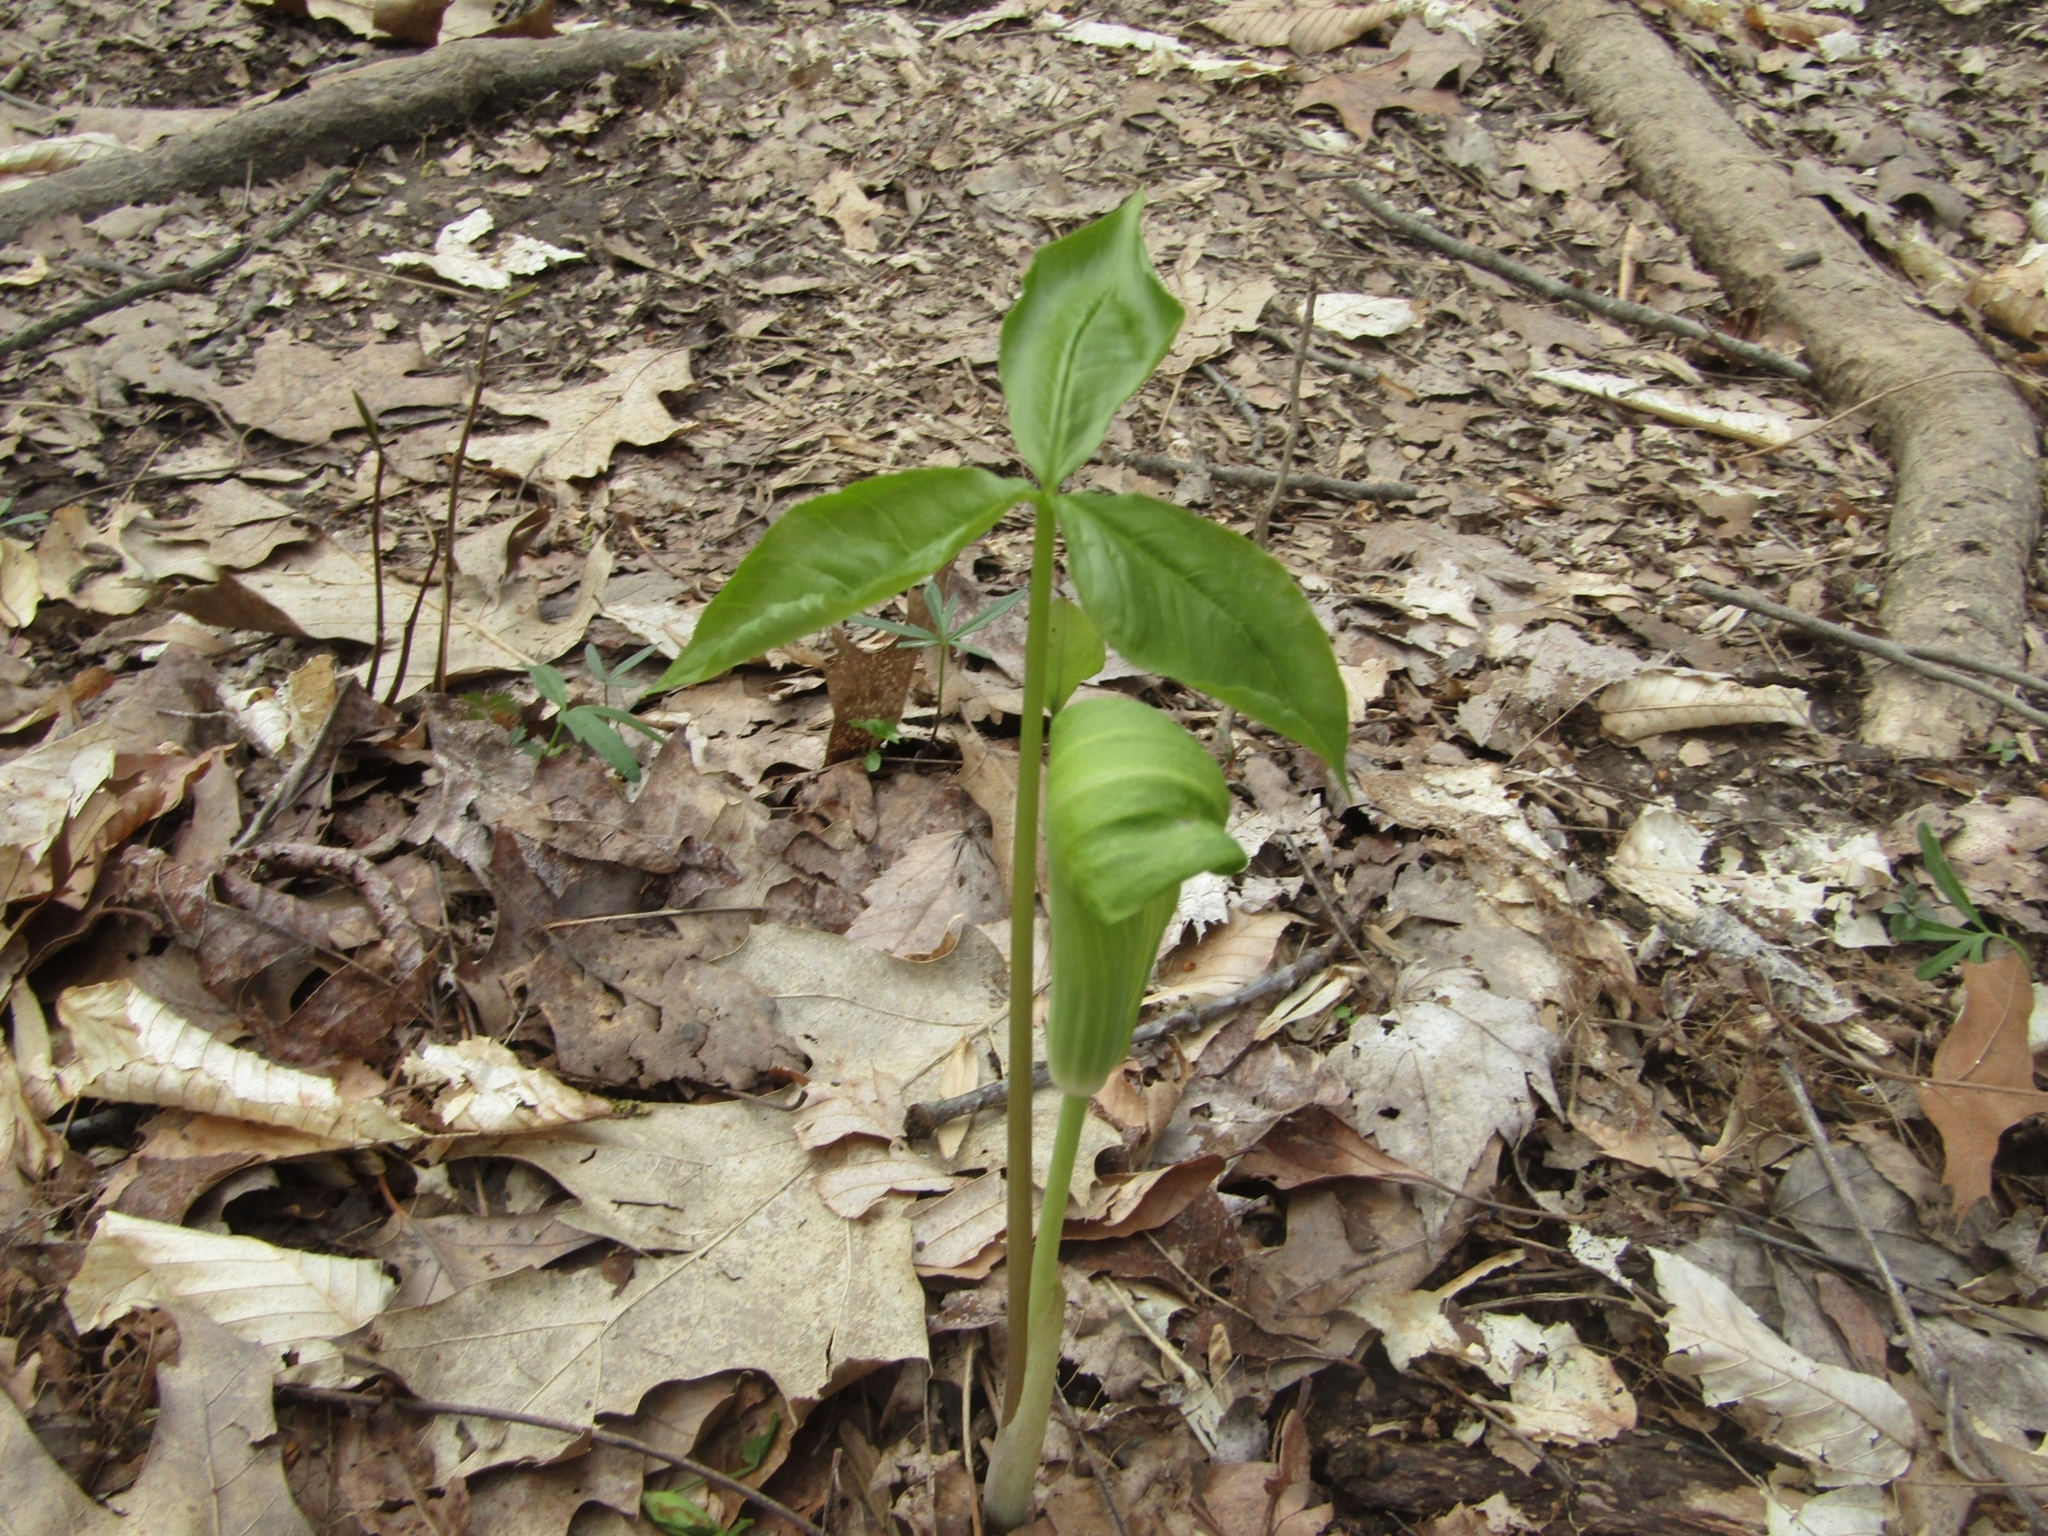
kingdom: Plantae
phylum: Tracheophyta
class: Liliopsida
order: Alismatales
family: Araceae
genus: Arisaema
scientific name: Arisaema triphyllum
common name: Jack-in-the-pulpit
